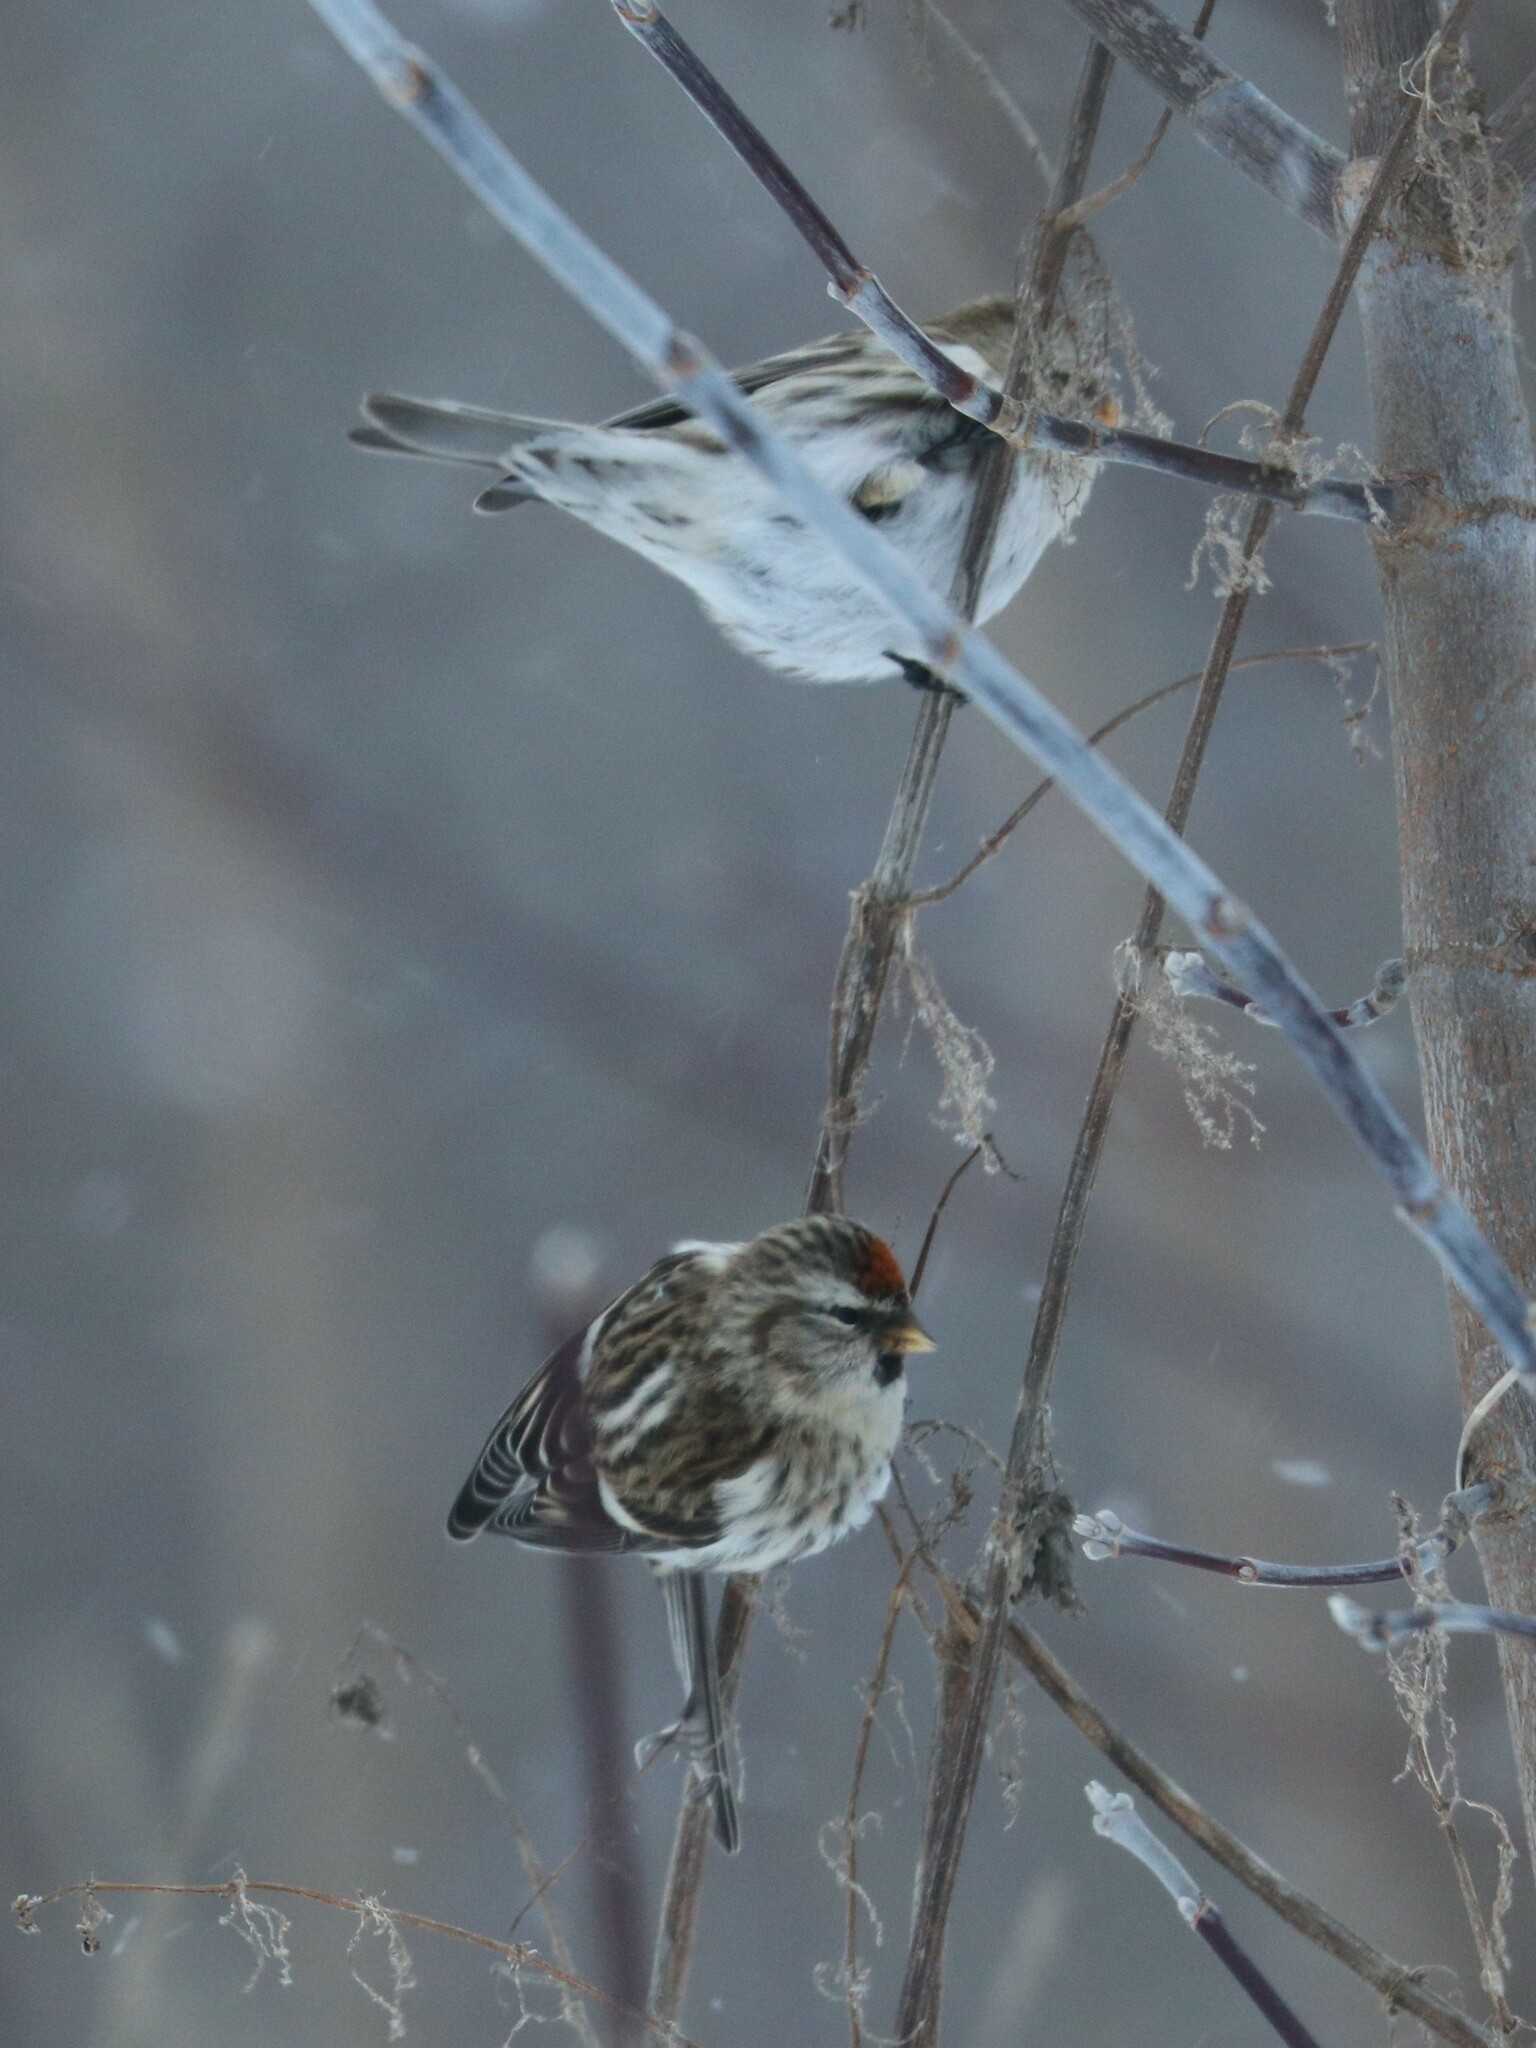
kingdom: Animalia
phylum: Chordata
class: Aves
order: Passeriformes
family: Fringillidae
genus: Acanthis
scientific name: Acanthis flammea
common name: Common redpoll
